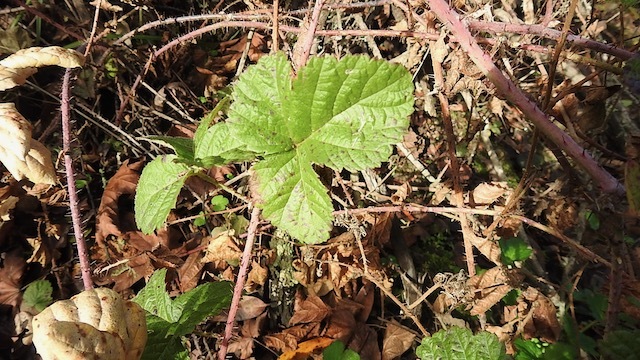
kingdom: Plantae
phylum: Tracheophyta
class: Magnoliopsida
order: Rosales
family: Rosaceae
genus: Rubus
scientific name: Rubus ursinus
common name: Pacific blackberry
